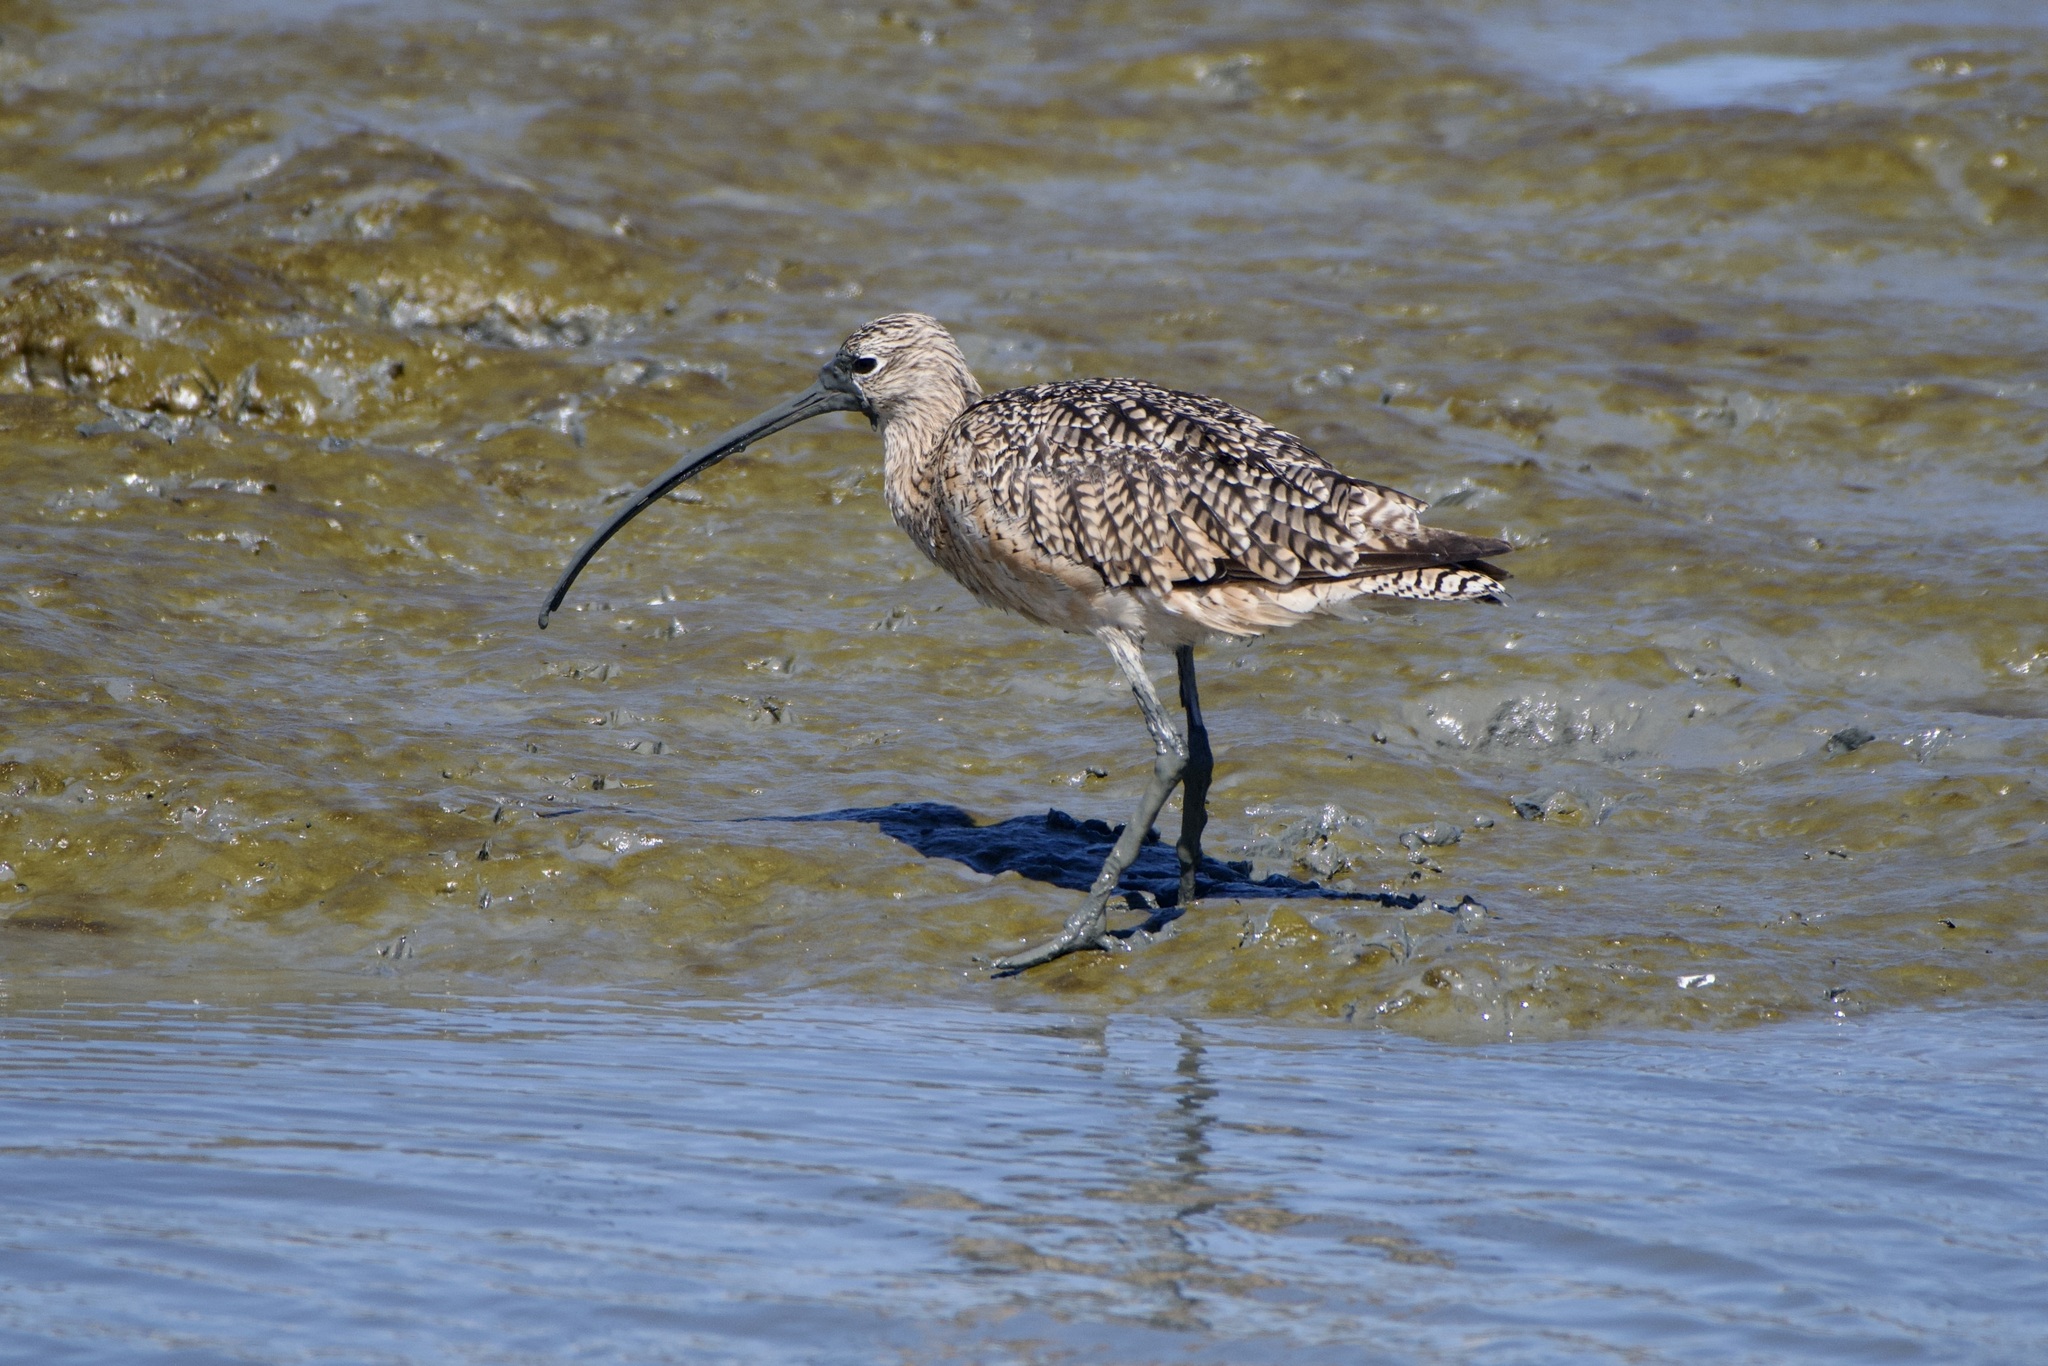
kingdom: Animalia
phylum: Chordata
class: Aves
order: Charadriiformes
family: Scolopacidae
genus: Numenius
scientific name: Numenius americanus
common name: Long-billed curlew
